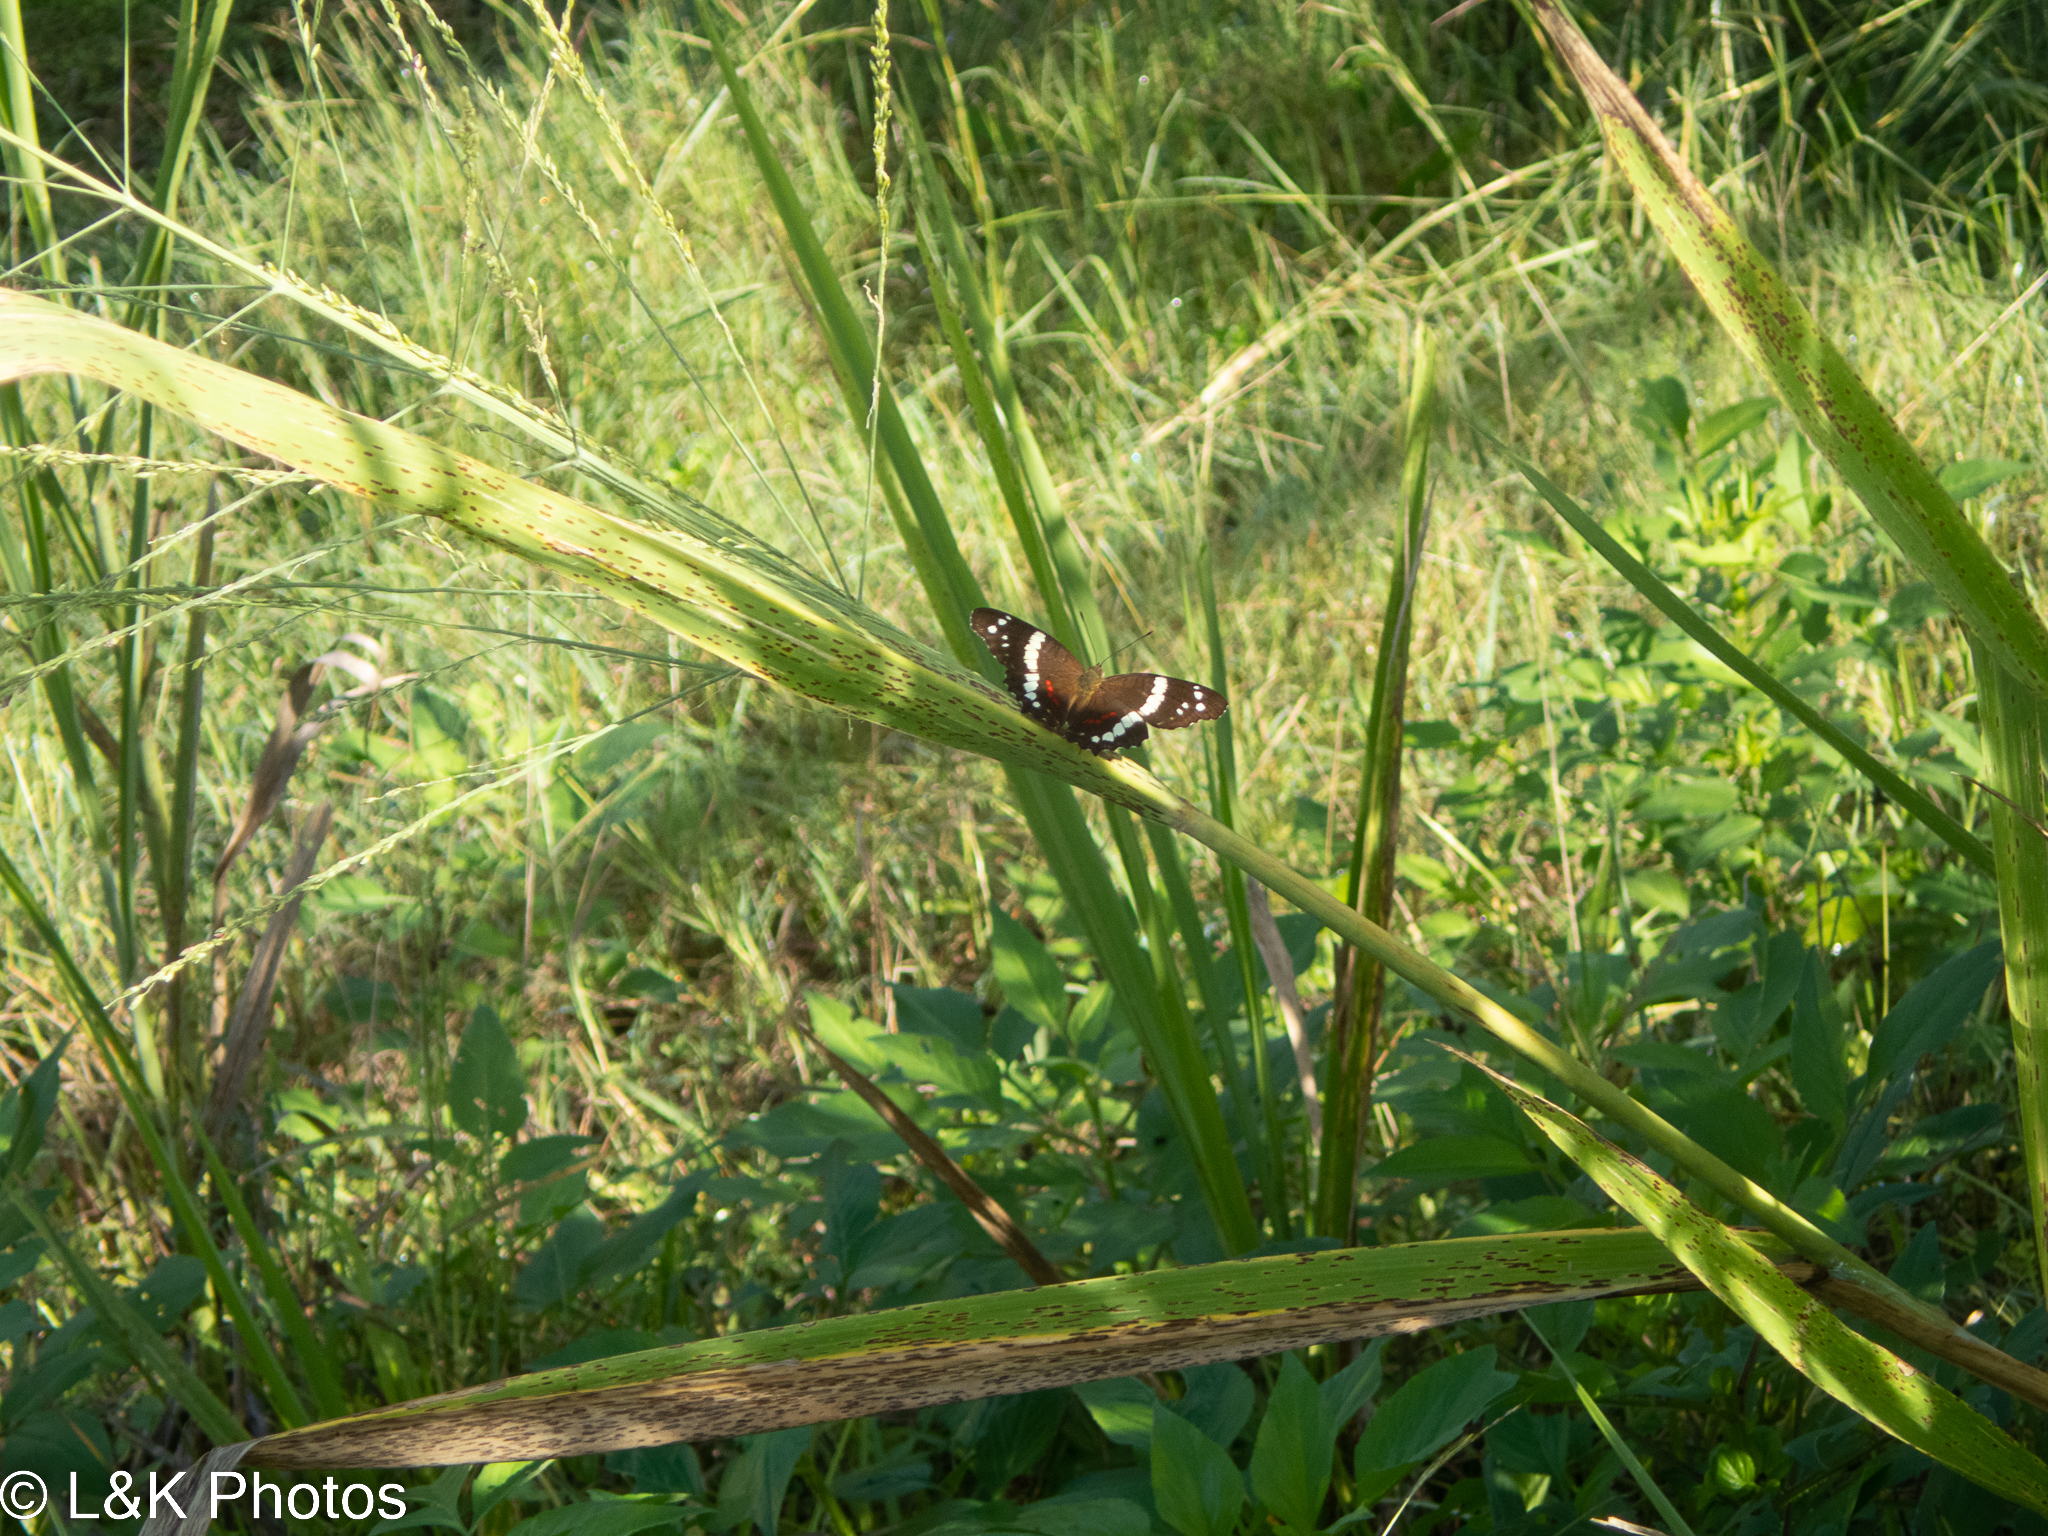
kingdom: Animalia
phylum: Arthropoda
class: Insecta
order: Lepidoptera
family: Nymphalidae
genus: Anartia
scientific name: Anartia fatima
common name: Banded peacock
